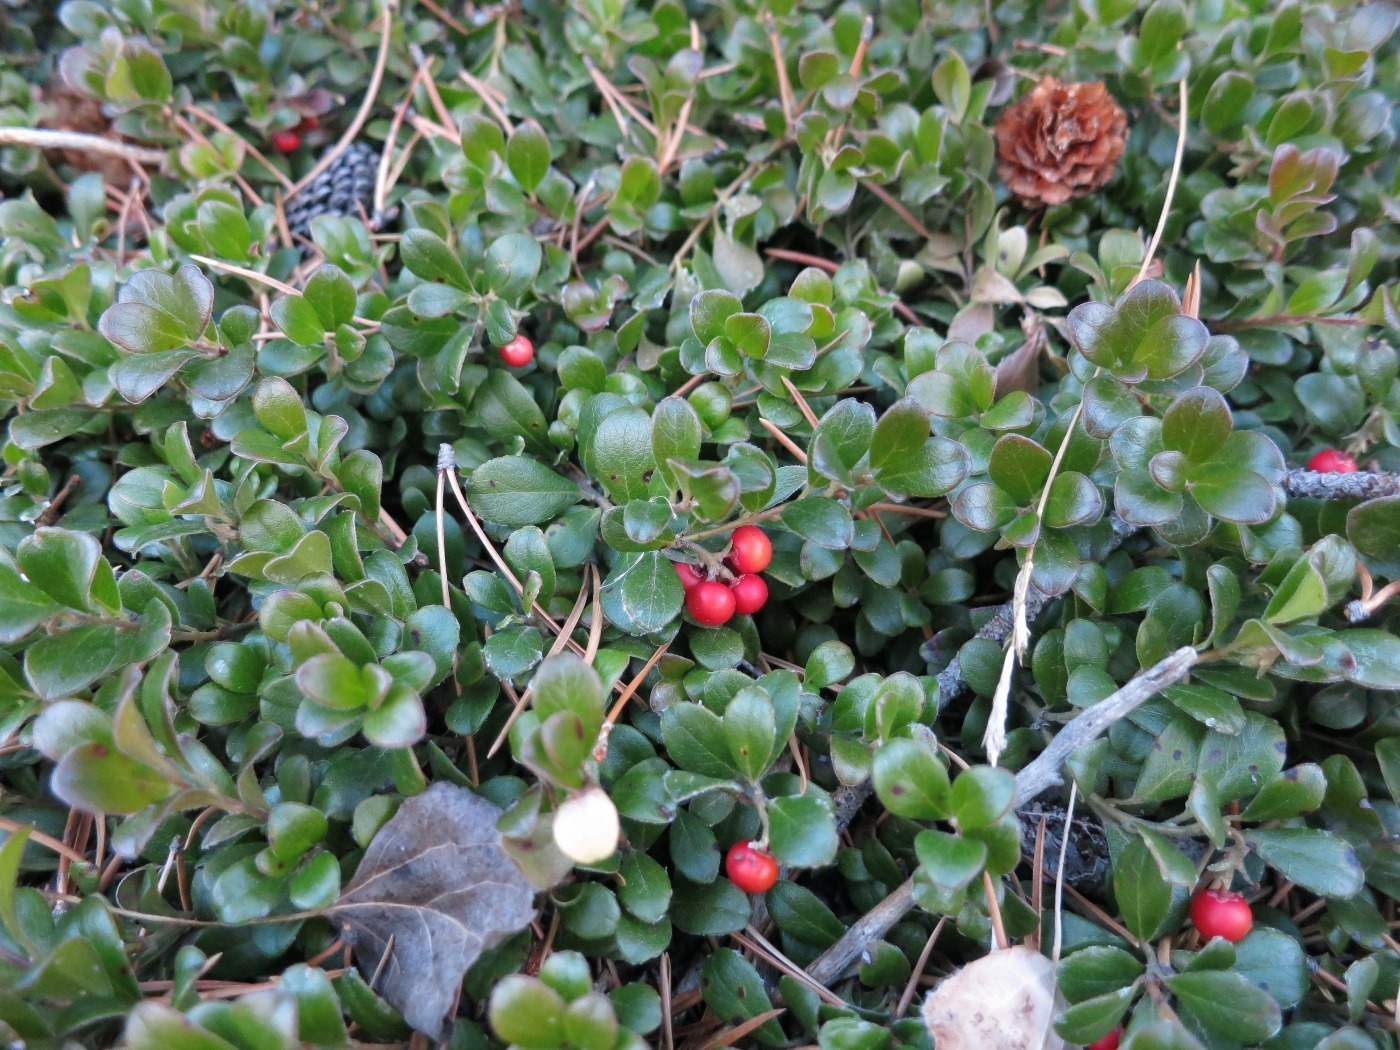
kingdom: Plantae
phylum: Tracheophyta
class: Magnoliopsida
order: Ericales
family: Ericaceae
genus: Arctostaphylos
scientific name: Arctostaphylos uva-ursi
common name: Bearberry
